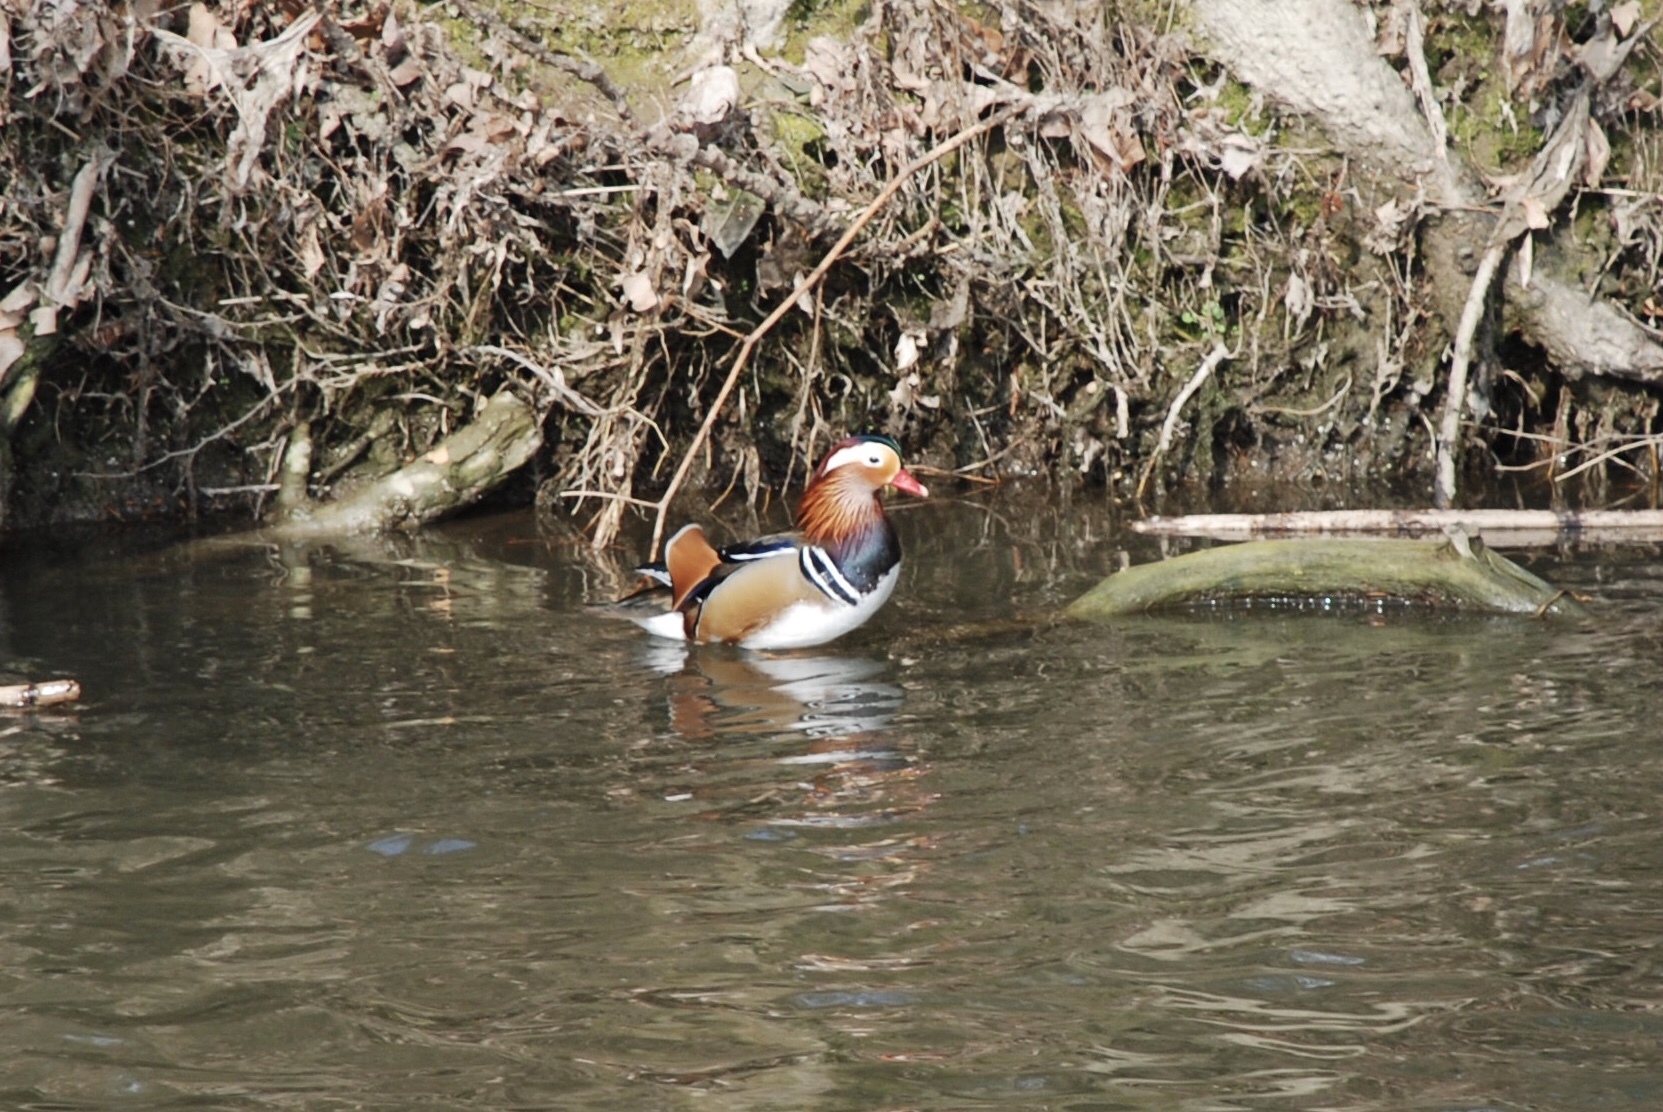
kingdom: Animalia
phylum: Chordata
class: Aves
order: Anseriformes
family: Anatidae
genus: Aix
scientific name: Aix galericulata
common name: Mandarin duck
